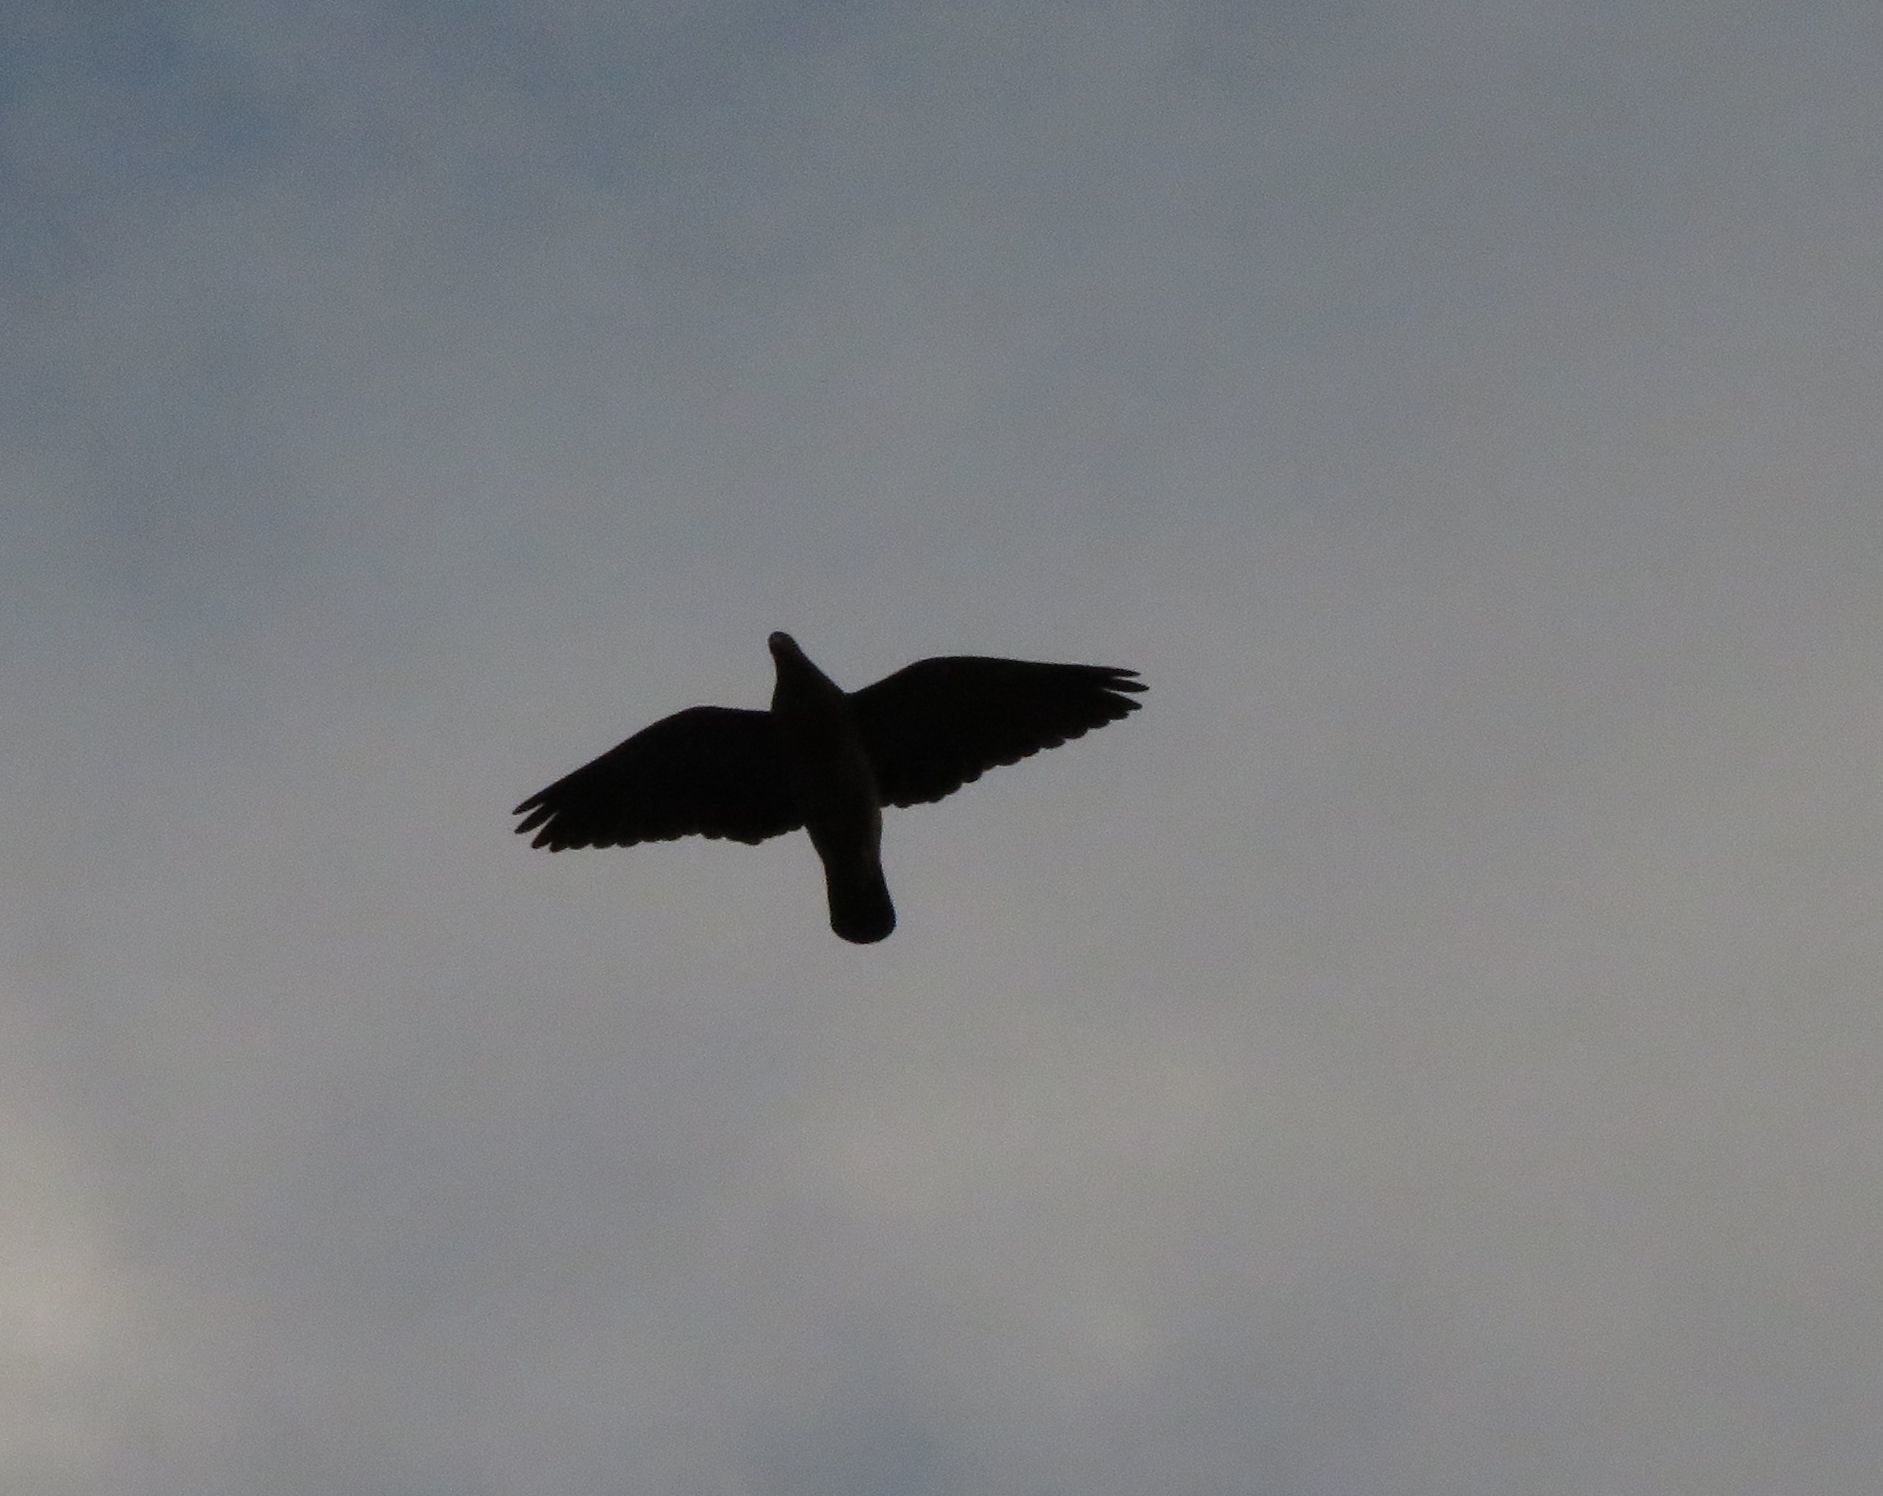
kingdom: Animalia
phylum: Chordata
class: Aves
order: Columbiformes
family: Columbidae
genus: Patagioenas
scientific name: Patagioenas picazuro
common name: Picazuro pigeon
